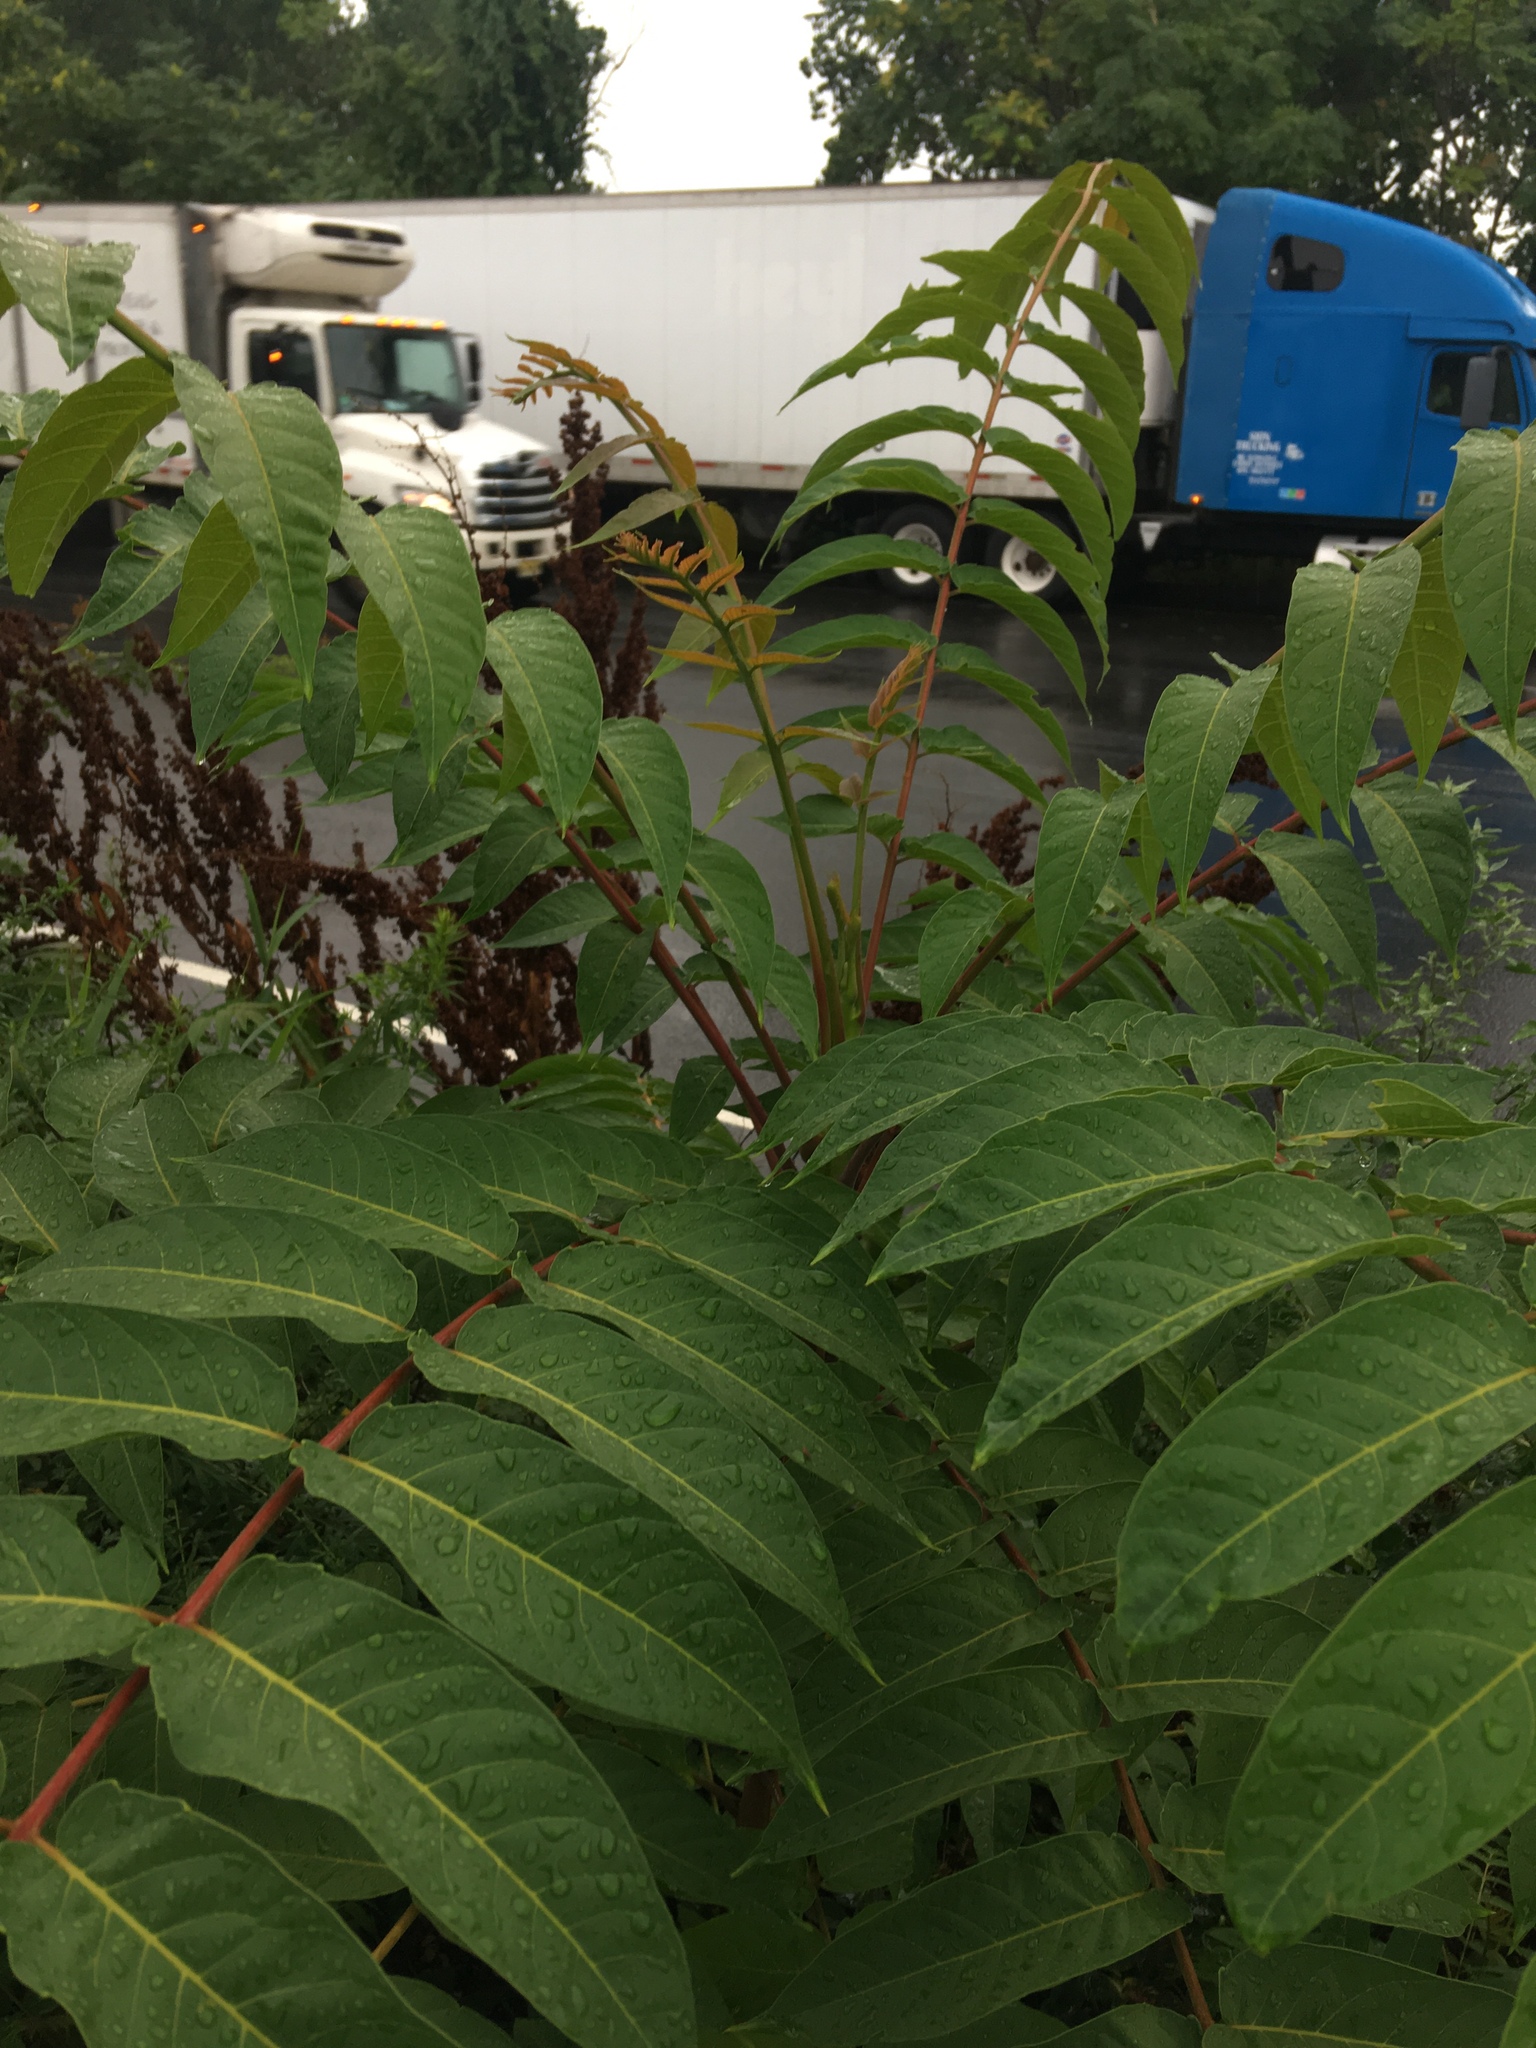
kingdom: Plantae
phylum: Tracheophyta
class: Magnoliopsida
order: Sapindales
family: Simaroubaceae
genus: Ailanthus
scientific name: Ailanthus altissima
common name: Tree-of-heaven
